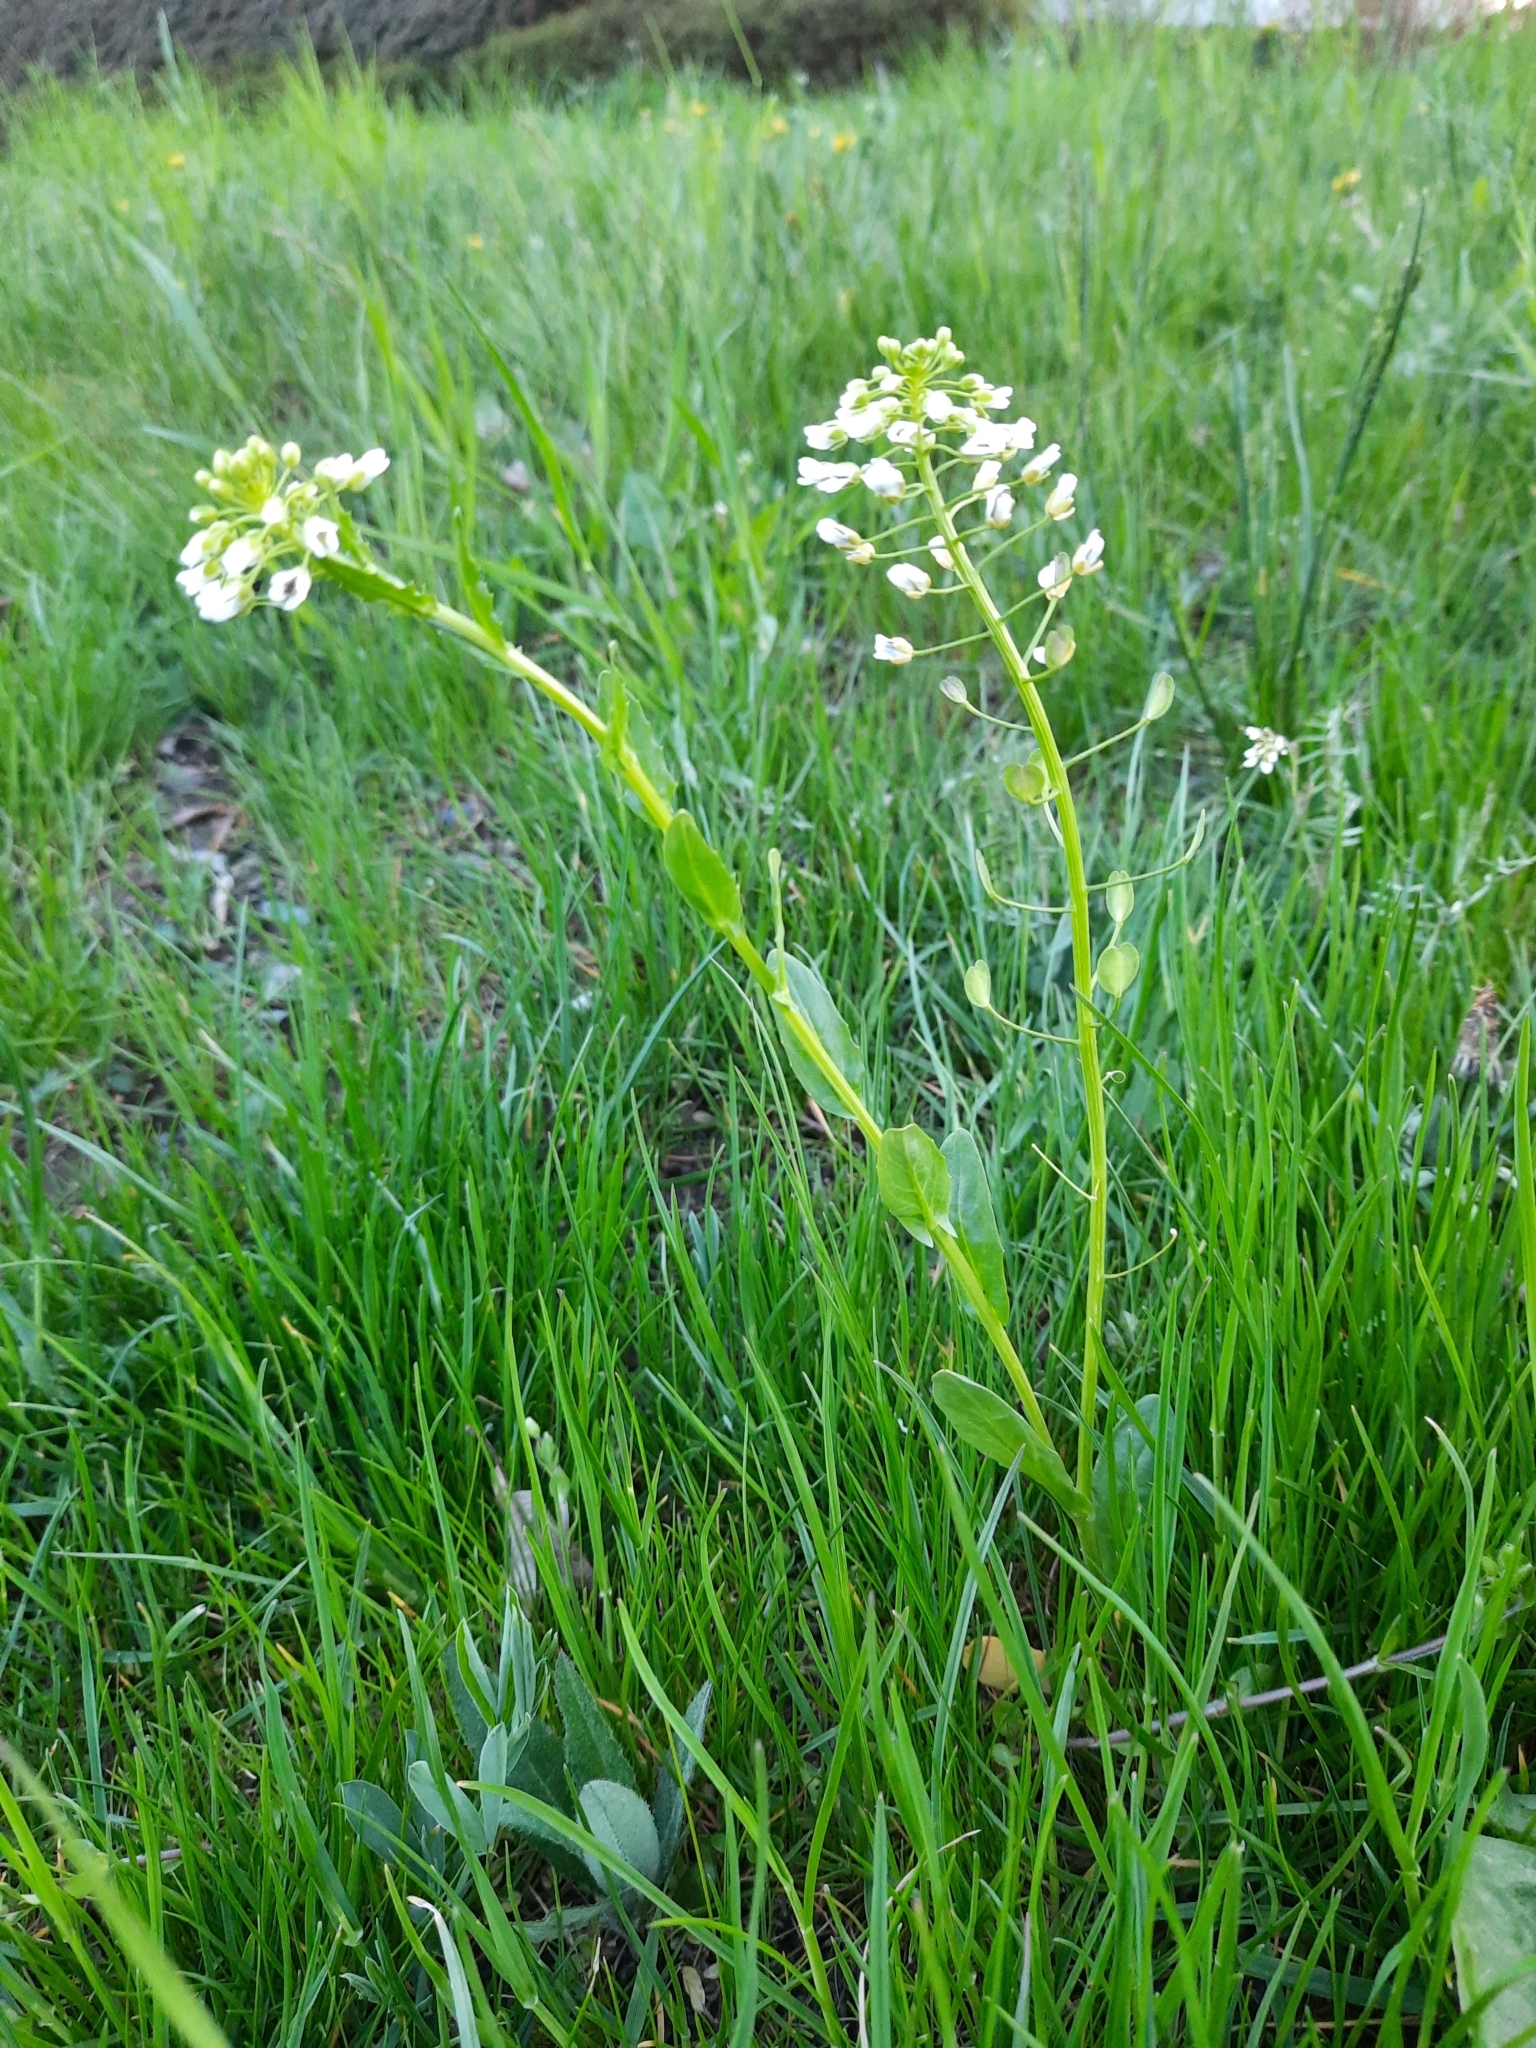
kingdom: Plantae
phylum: Tracheophyta
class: Magnoliopsida
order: Brassicales
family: Brassicaceae
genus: Thlaspi
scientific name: Thlaspi arvense
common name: Field pennycress
